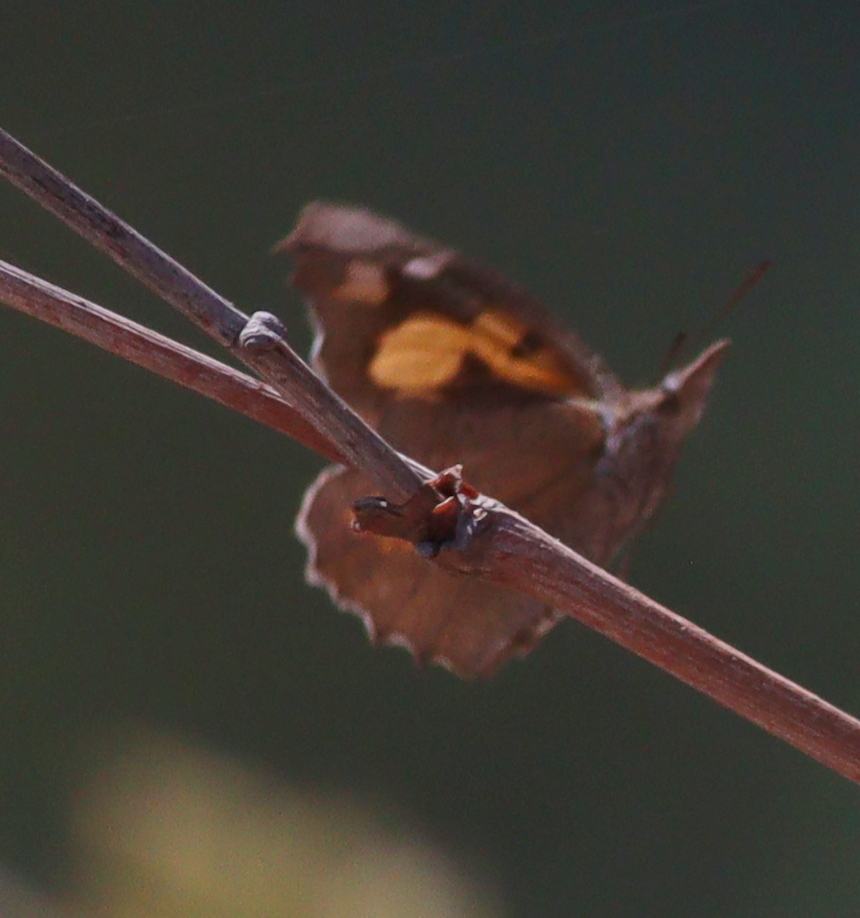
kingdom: Animalia
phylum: Arthropoda
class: Insecta
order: Lepidoptera
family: Nymphalidae
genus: Libythea
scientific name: Libythea celtis
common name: Nettle-tree butterfly
